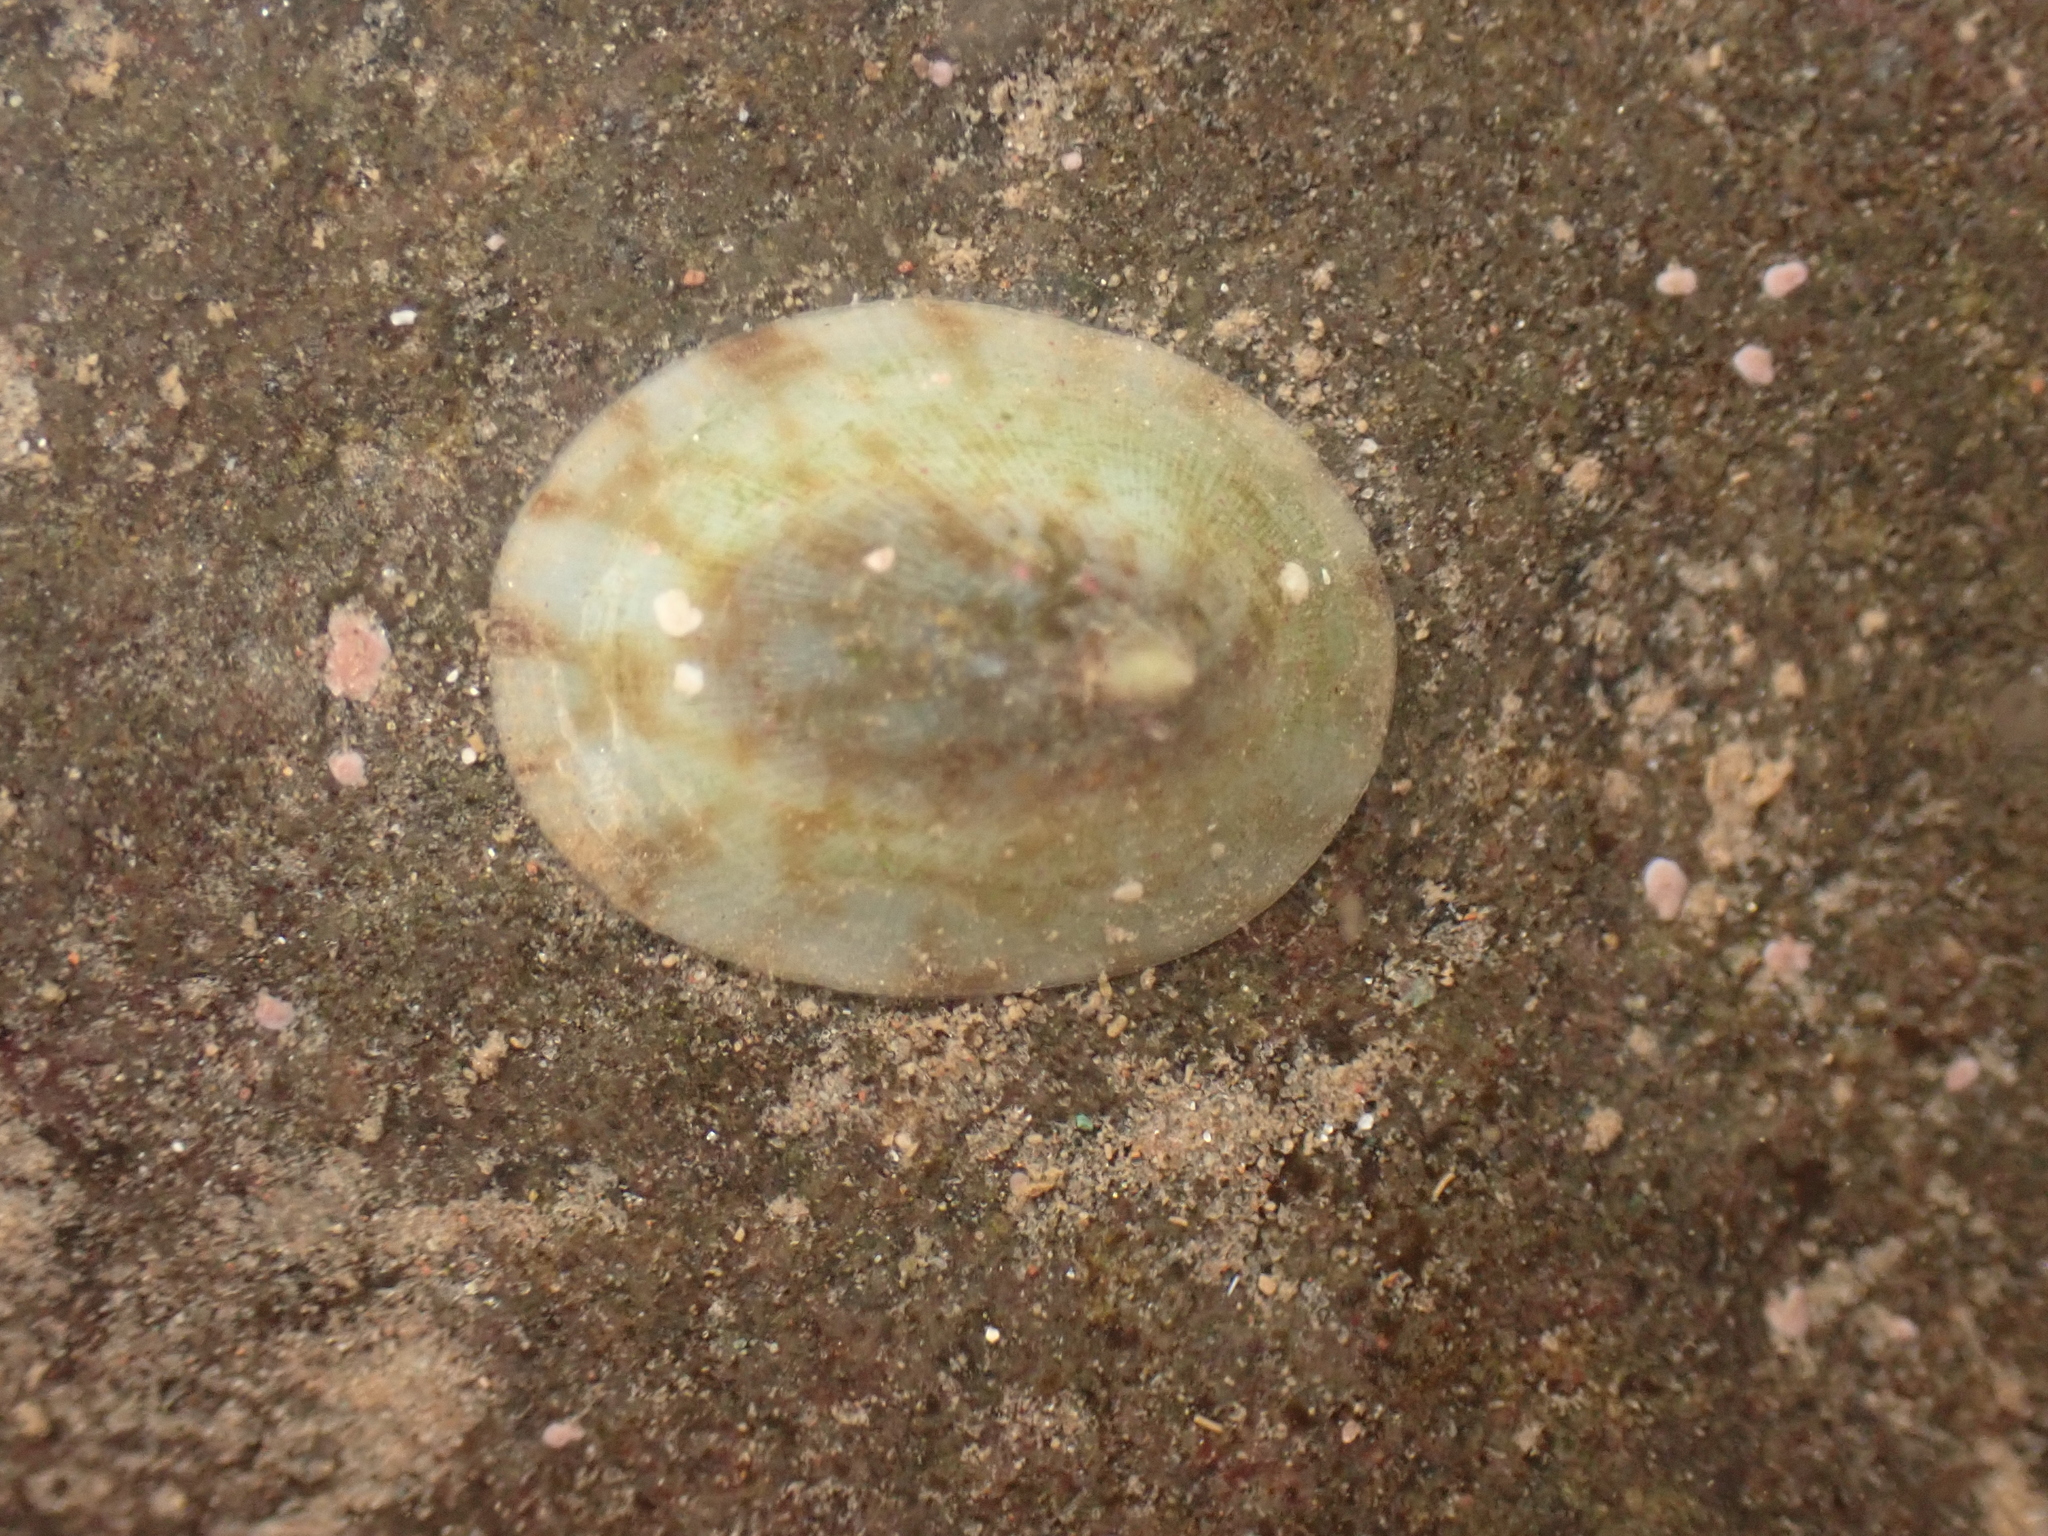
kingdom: Animalia
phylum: Mollusca
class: Gastropoda
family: Lottiidae
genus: Testudinalia
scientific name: Testudinalia testudinalis
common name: Common tortoiseshell limpet
